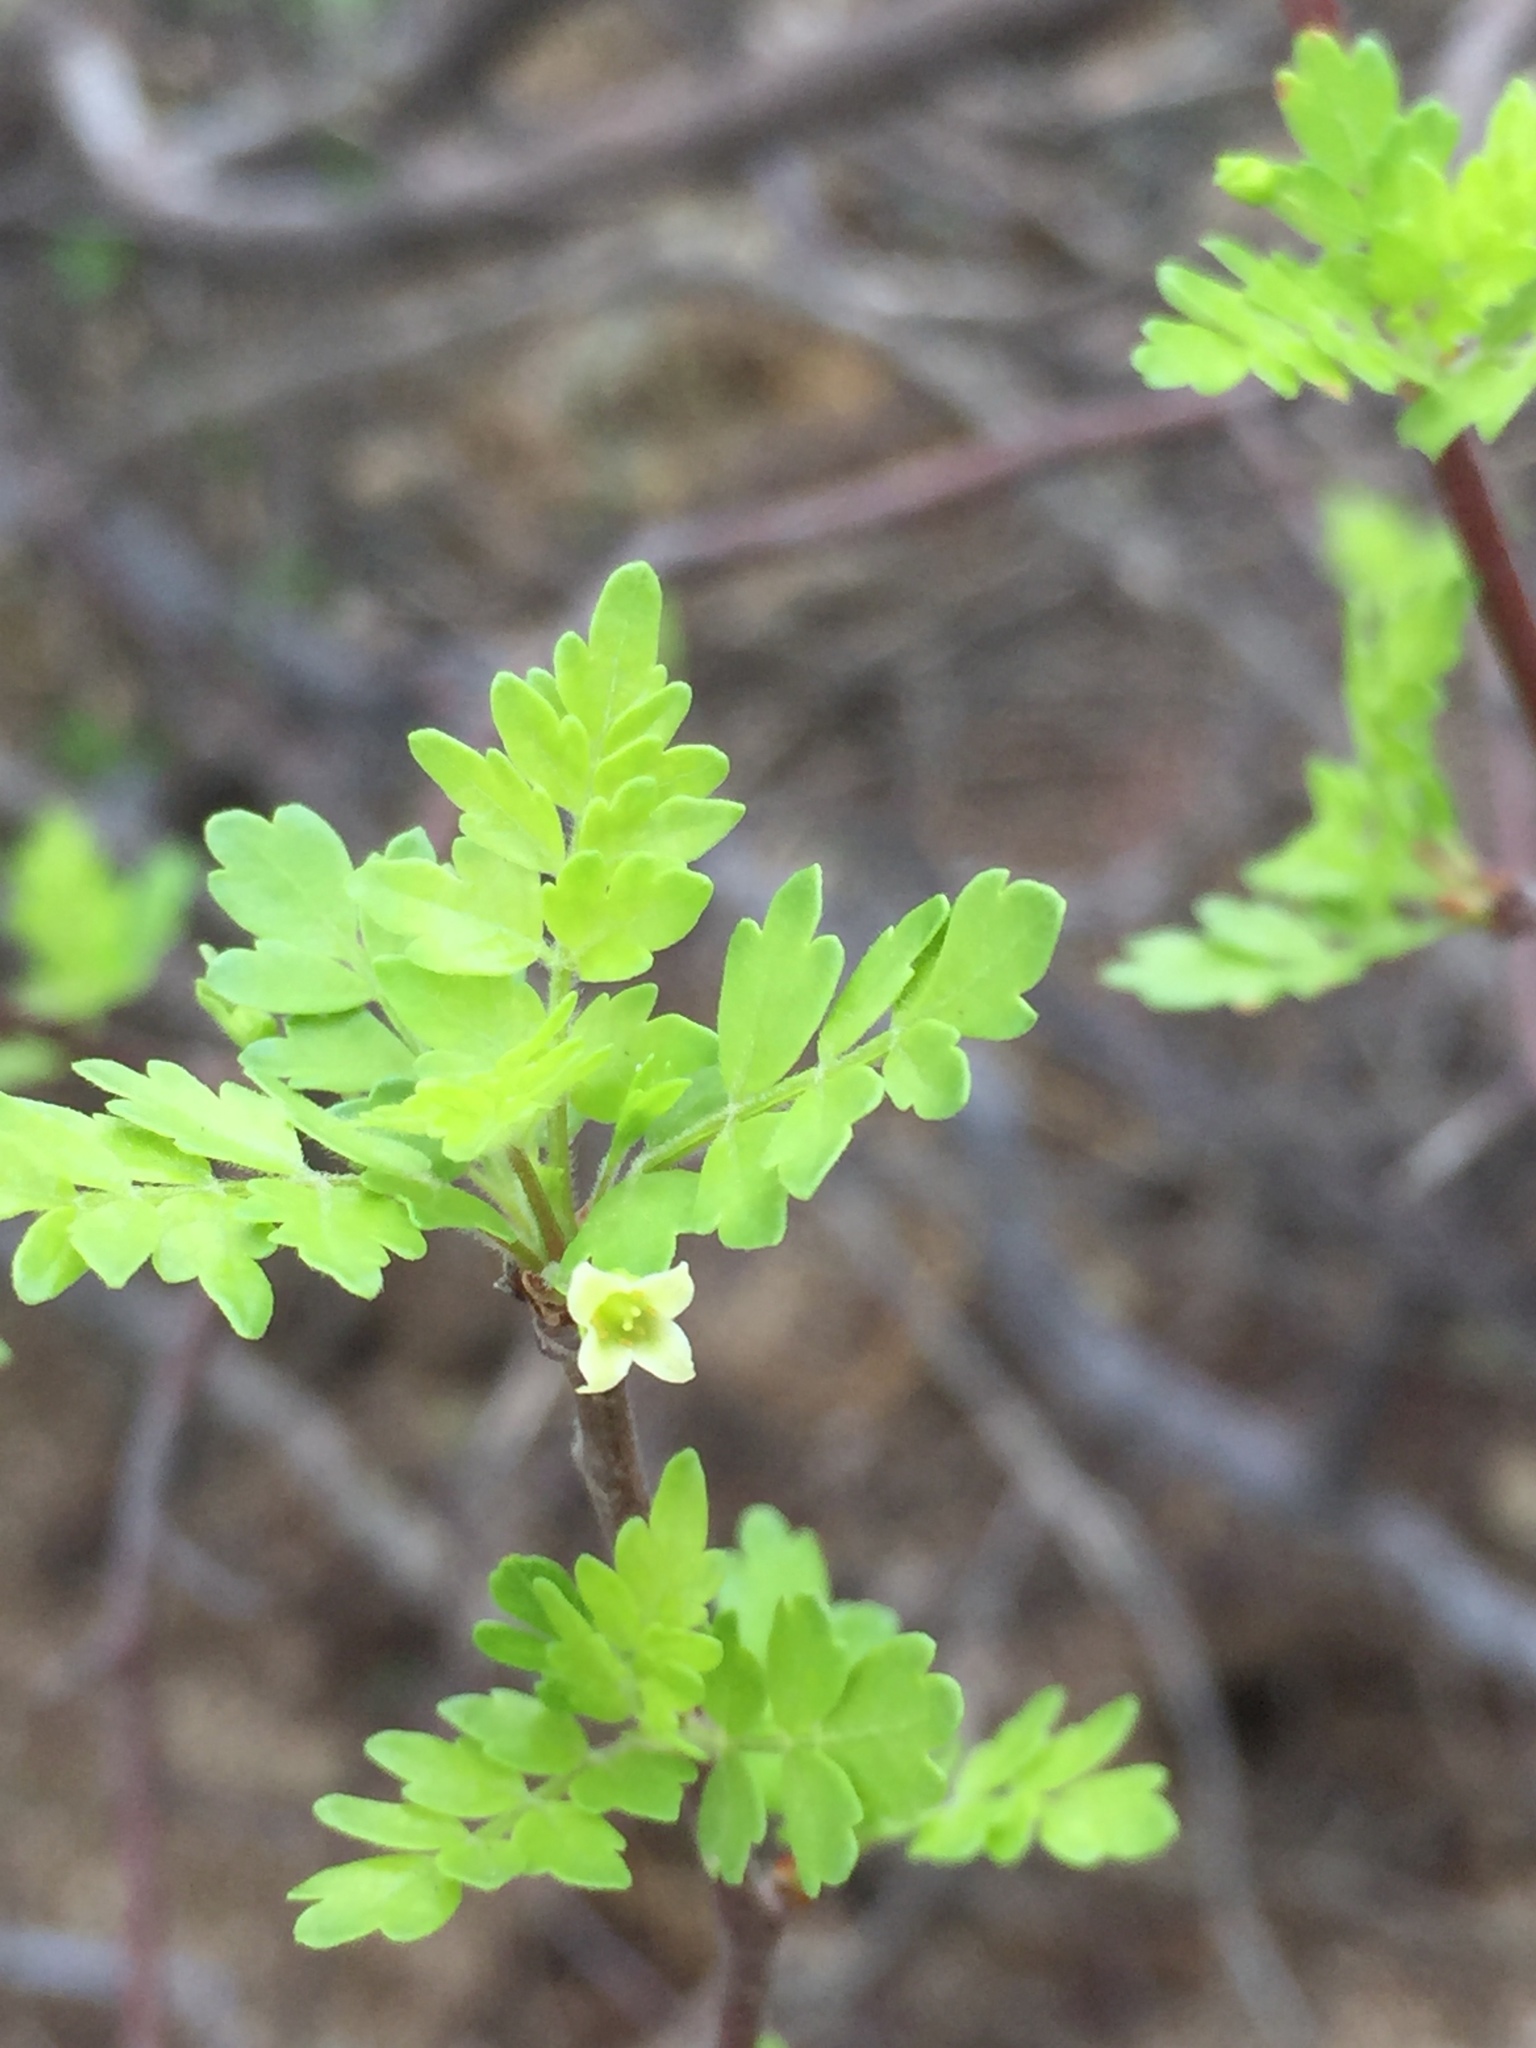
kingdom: Plantae
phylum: Tracheophyta
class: Magnoliopsida
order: Sapindales
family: Burseraceae
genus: Bursera
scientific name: Bursera laxiflora
